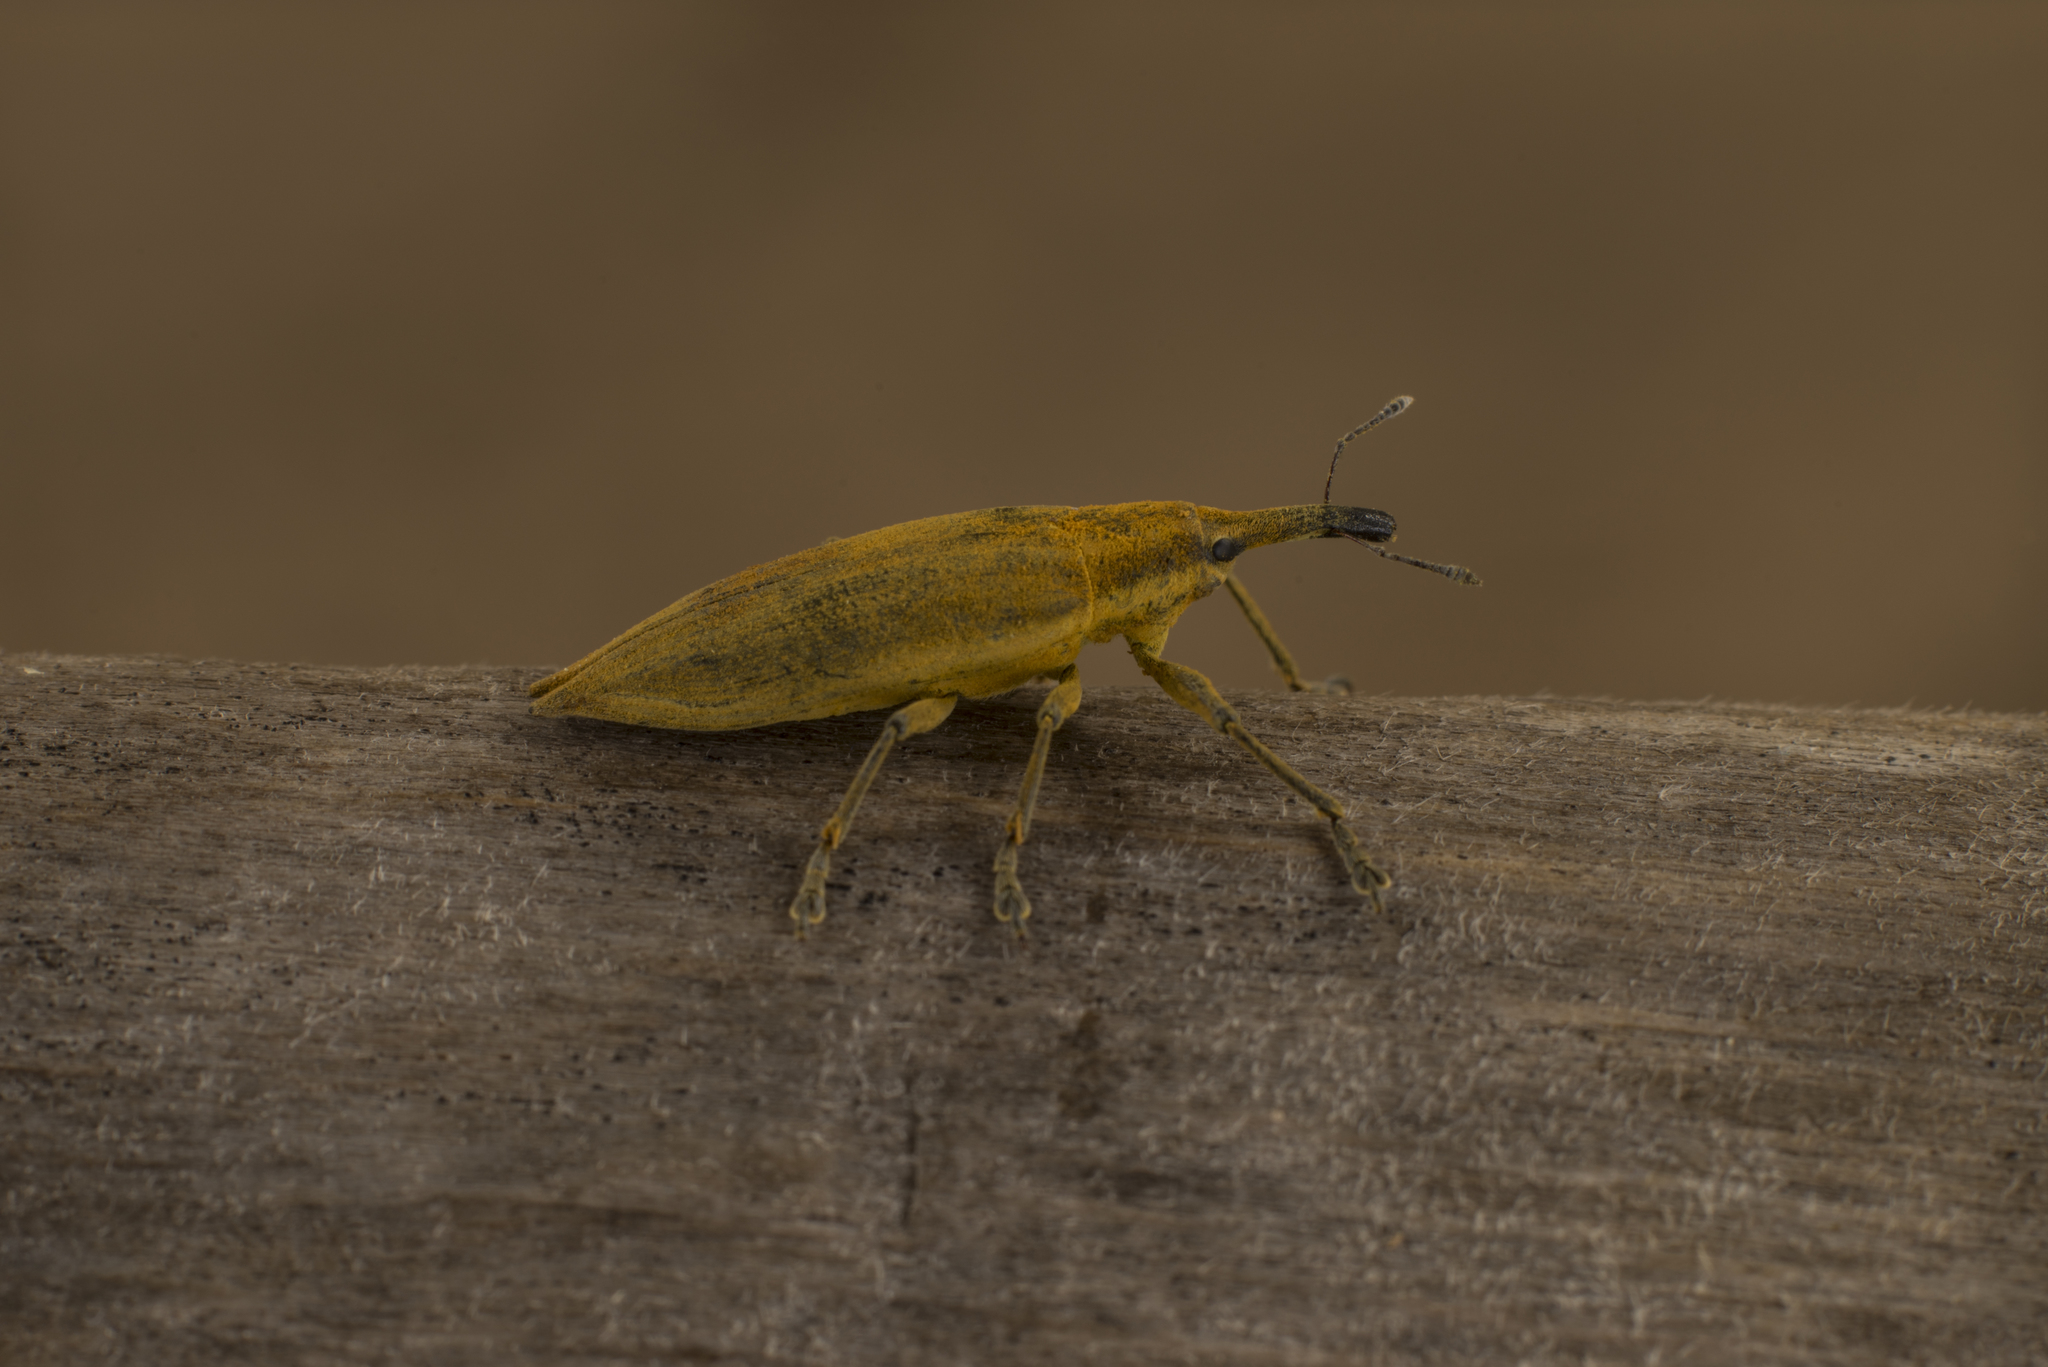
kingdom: Animalia
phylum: Arthropoda
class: Insecta
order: Coleoptera
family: Curculionidae
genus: Lixus
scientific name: Lixus iridis
